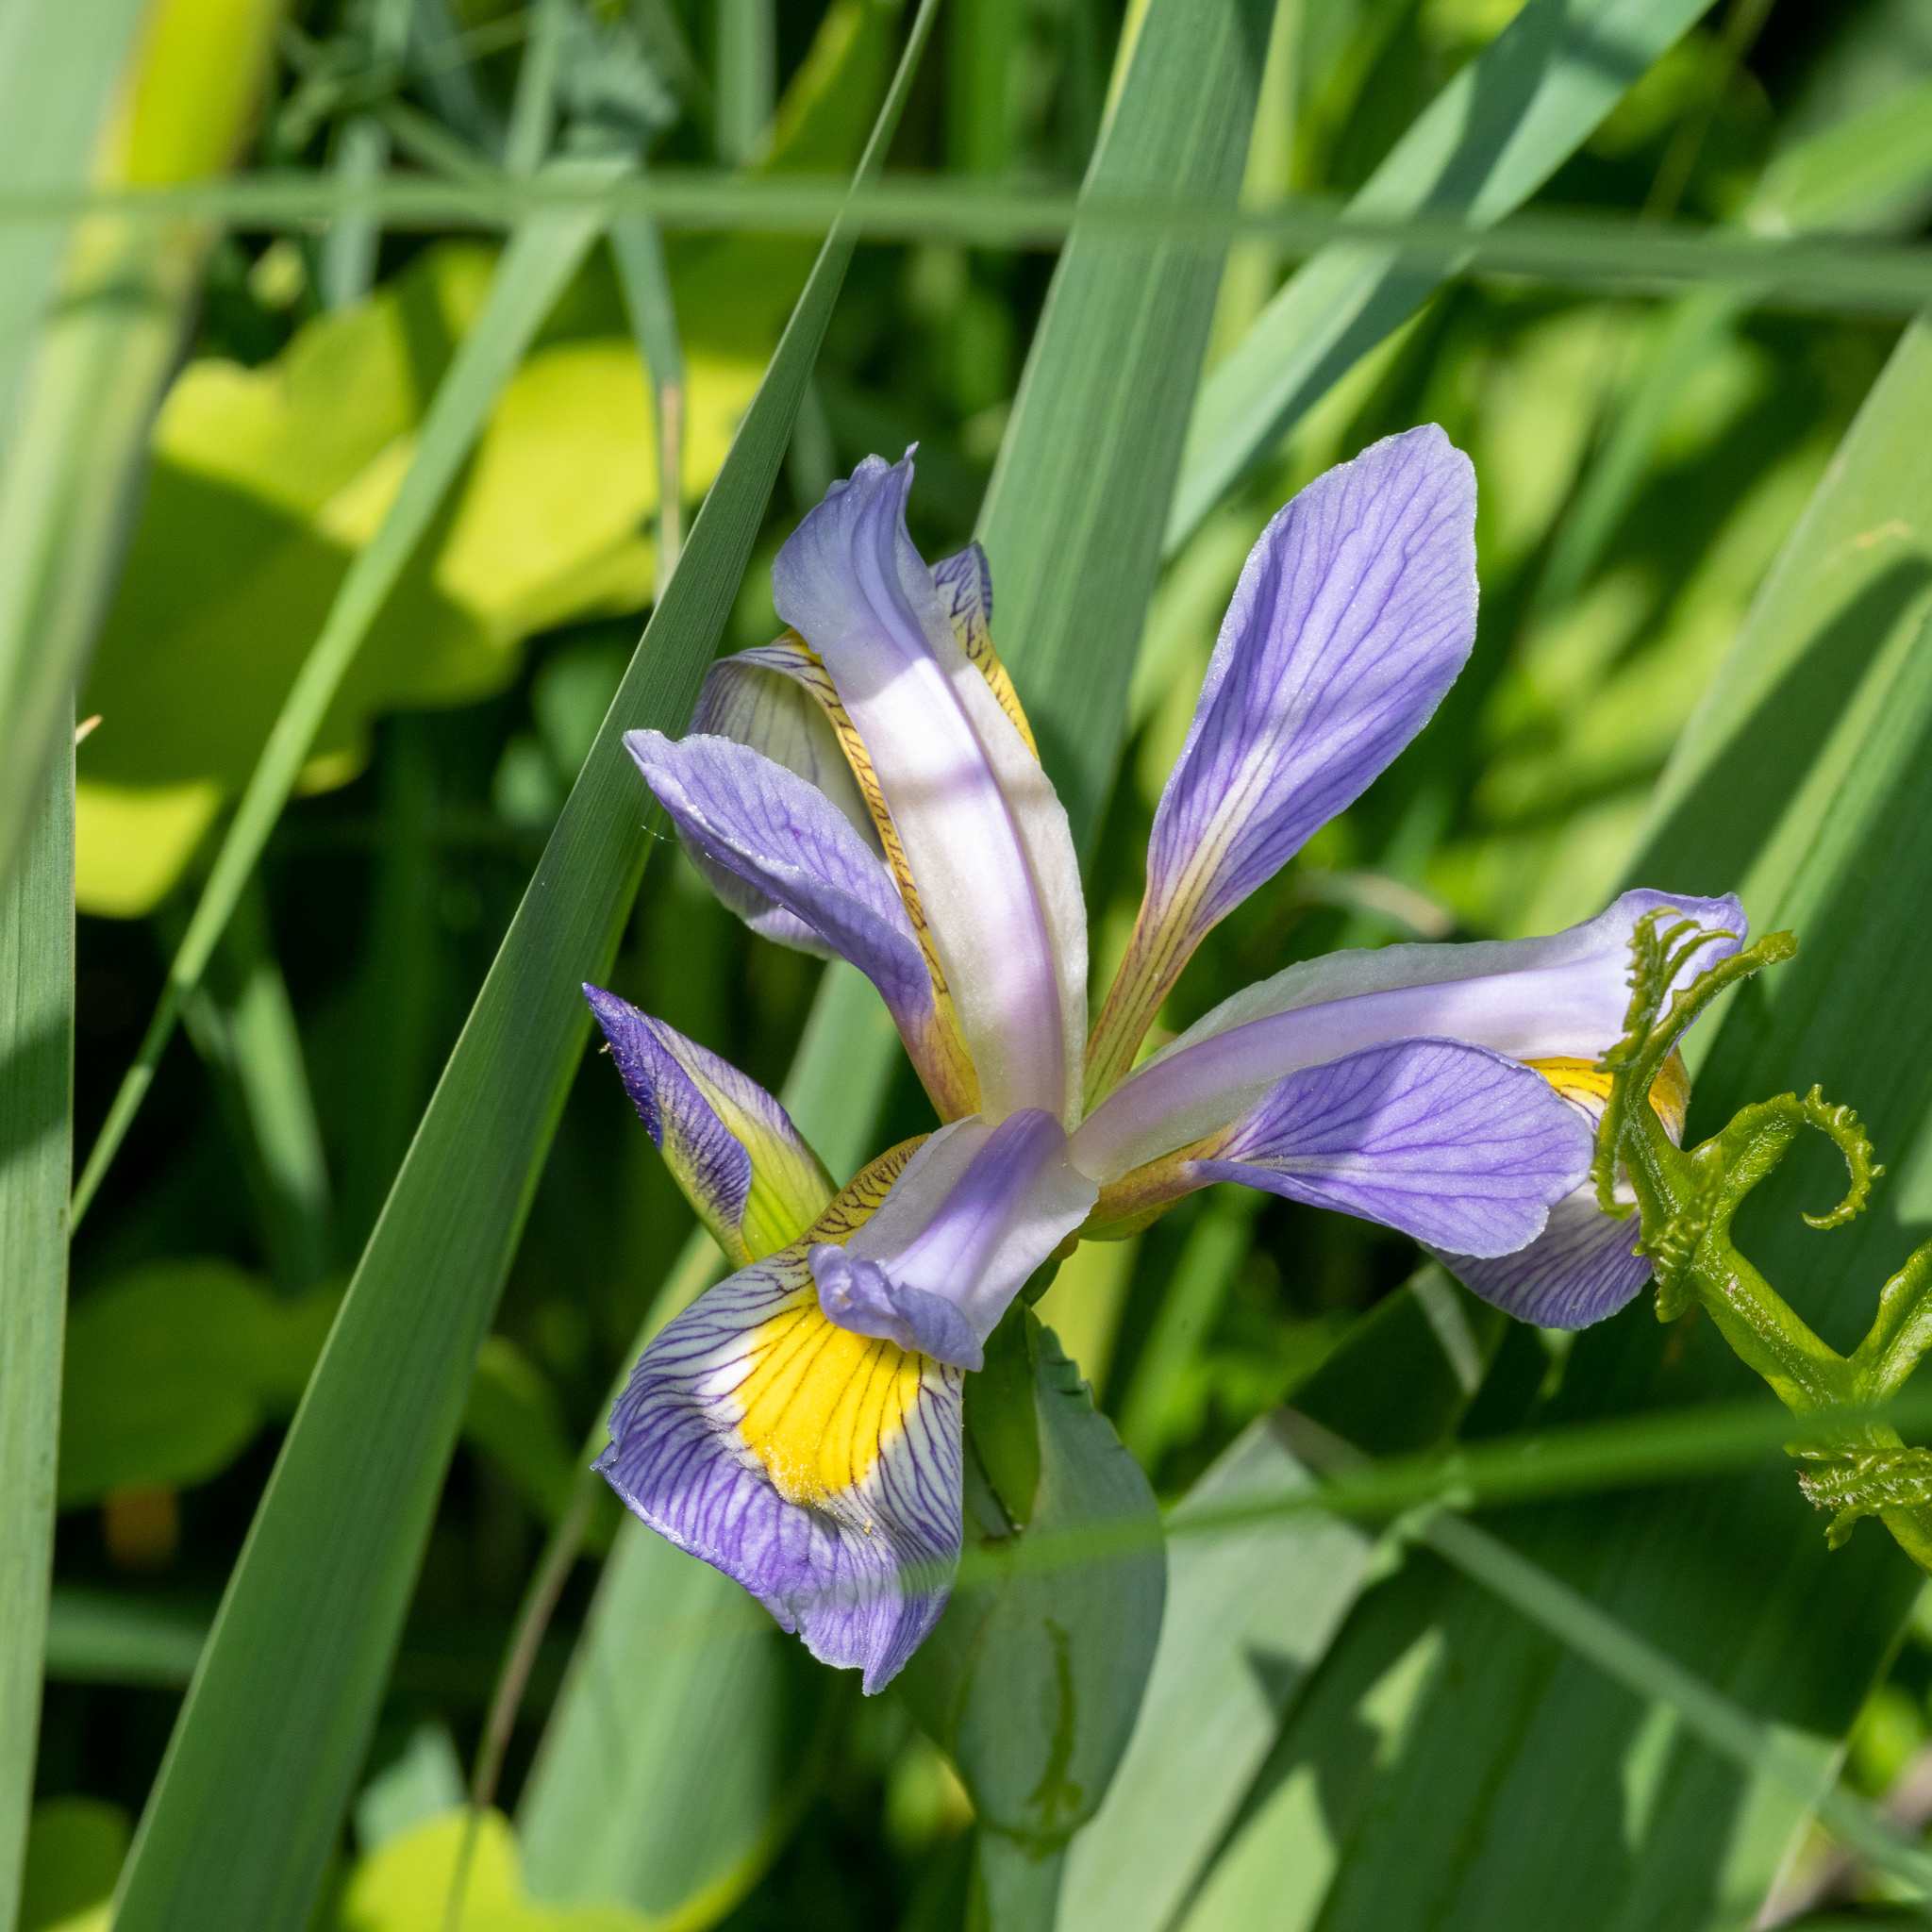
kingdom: Plantae
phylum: Tracheophyta
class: Liliopsida
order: Asparagales
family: Iridaceae
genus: Iris
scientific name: Iris virginica
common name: Southern blue flag
